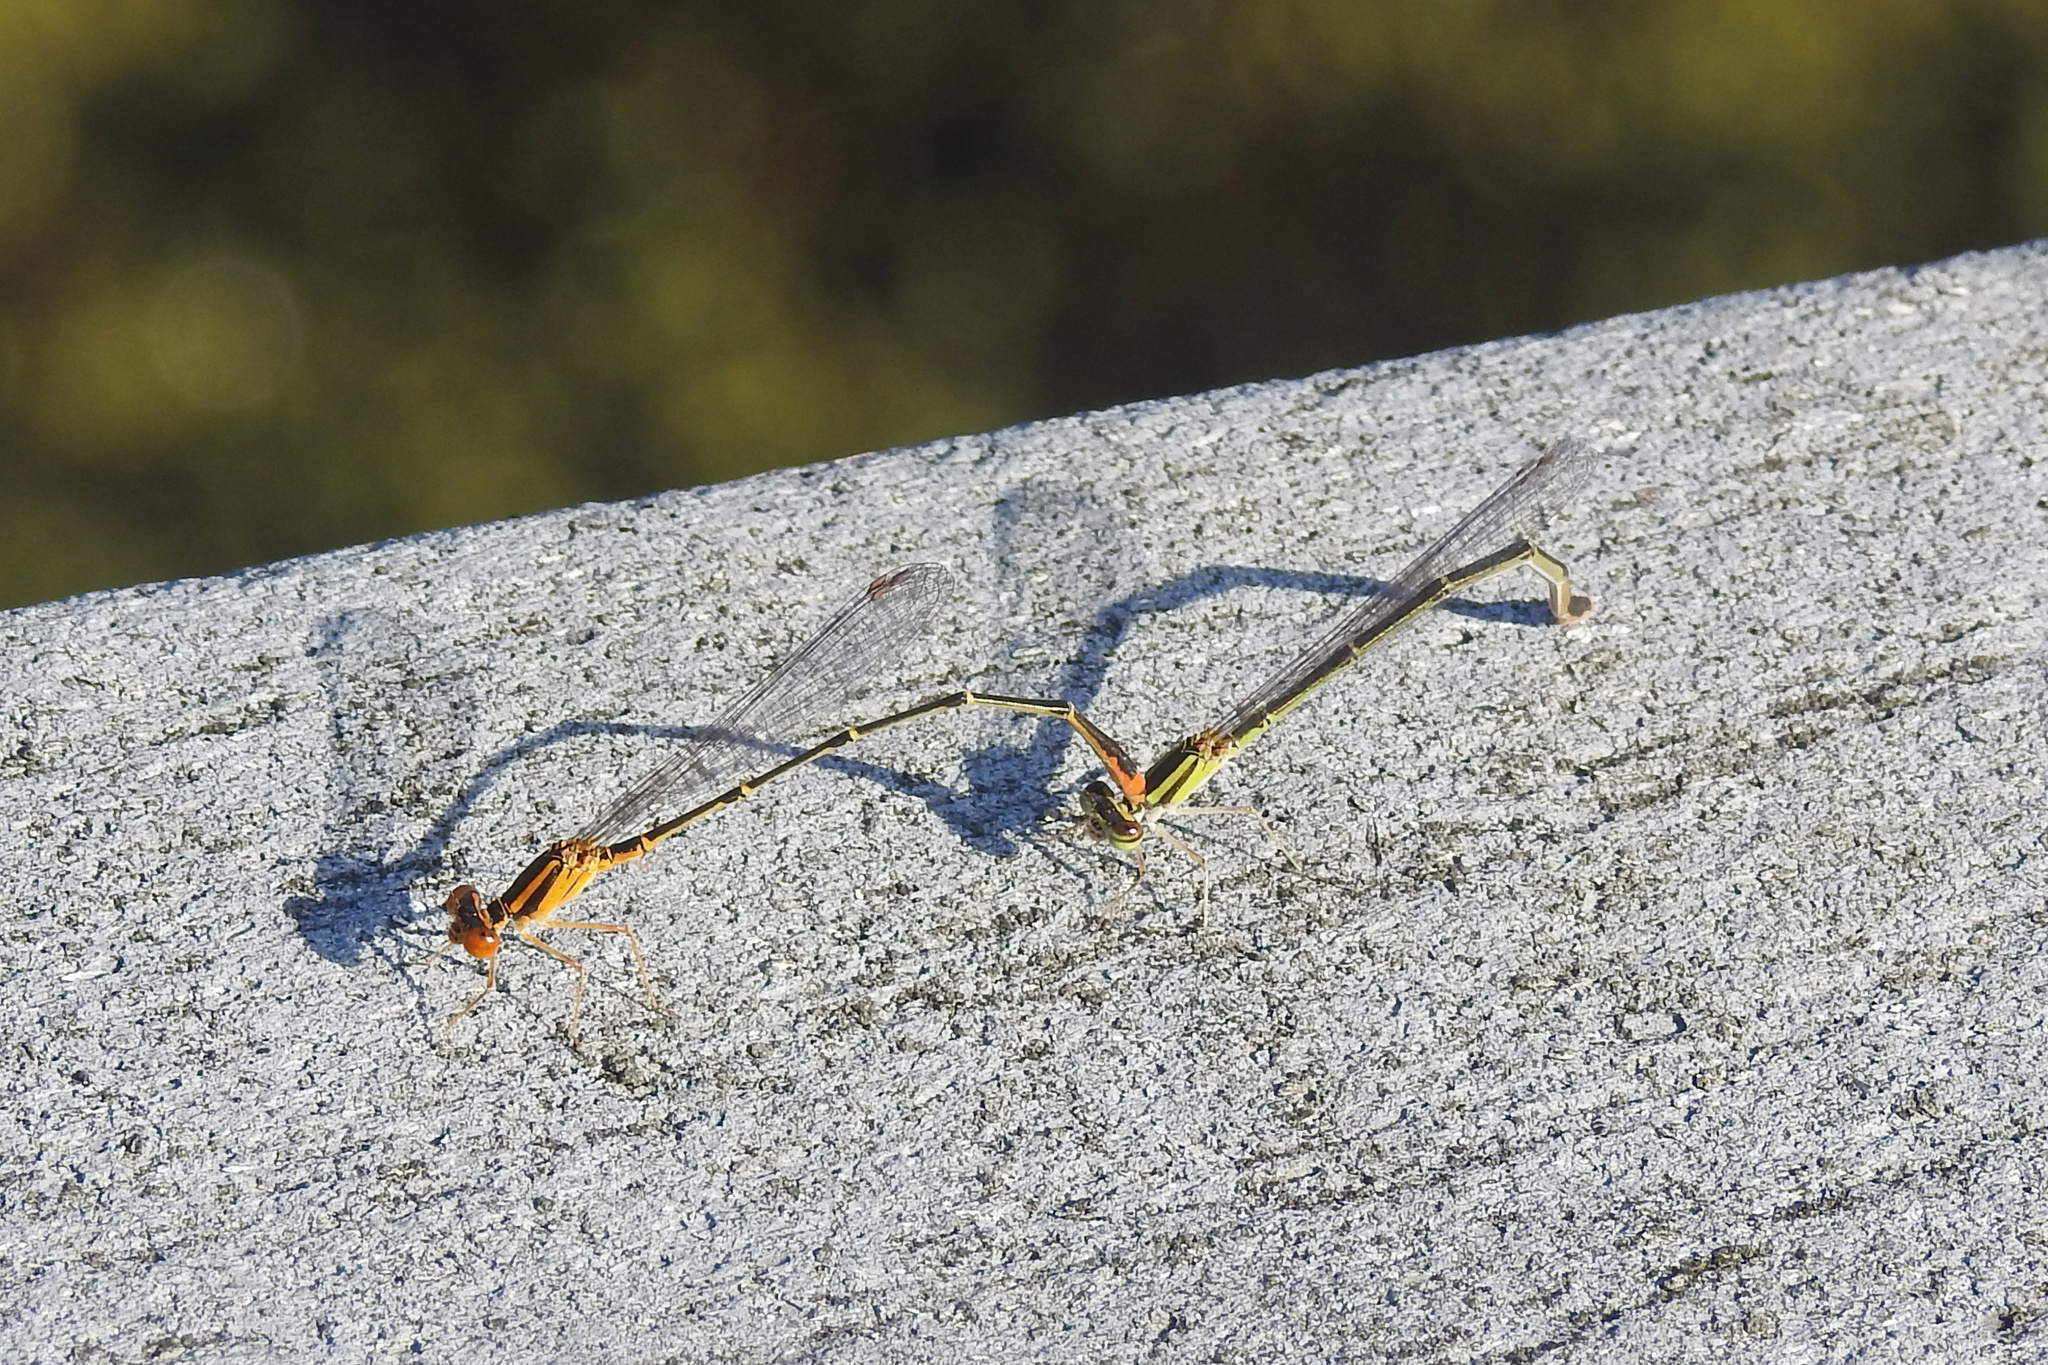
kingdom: Animalia
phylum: Arthropoda
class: Insecta
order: Odonata
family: Coenagrionidae
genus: Enallagma
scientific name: Enallagma signatum
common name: Orange bluet
